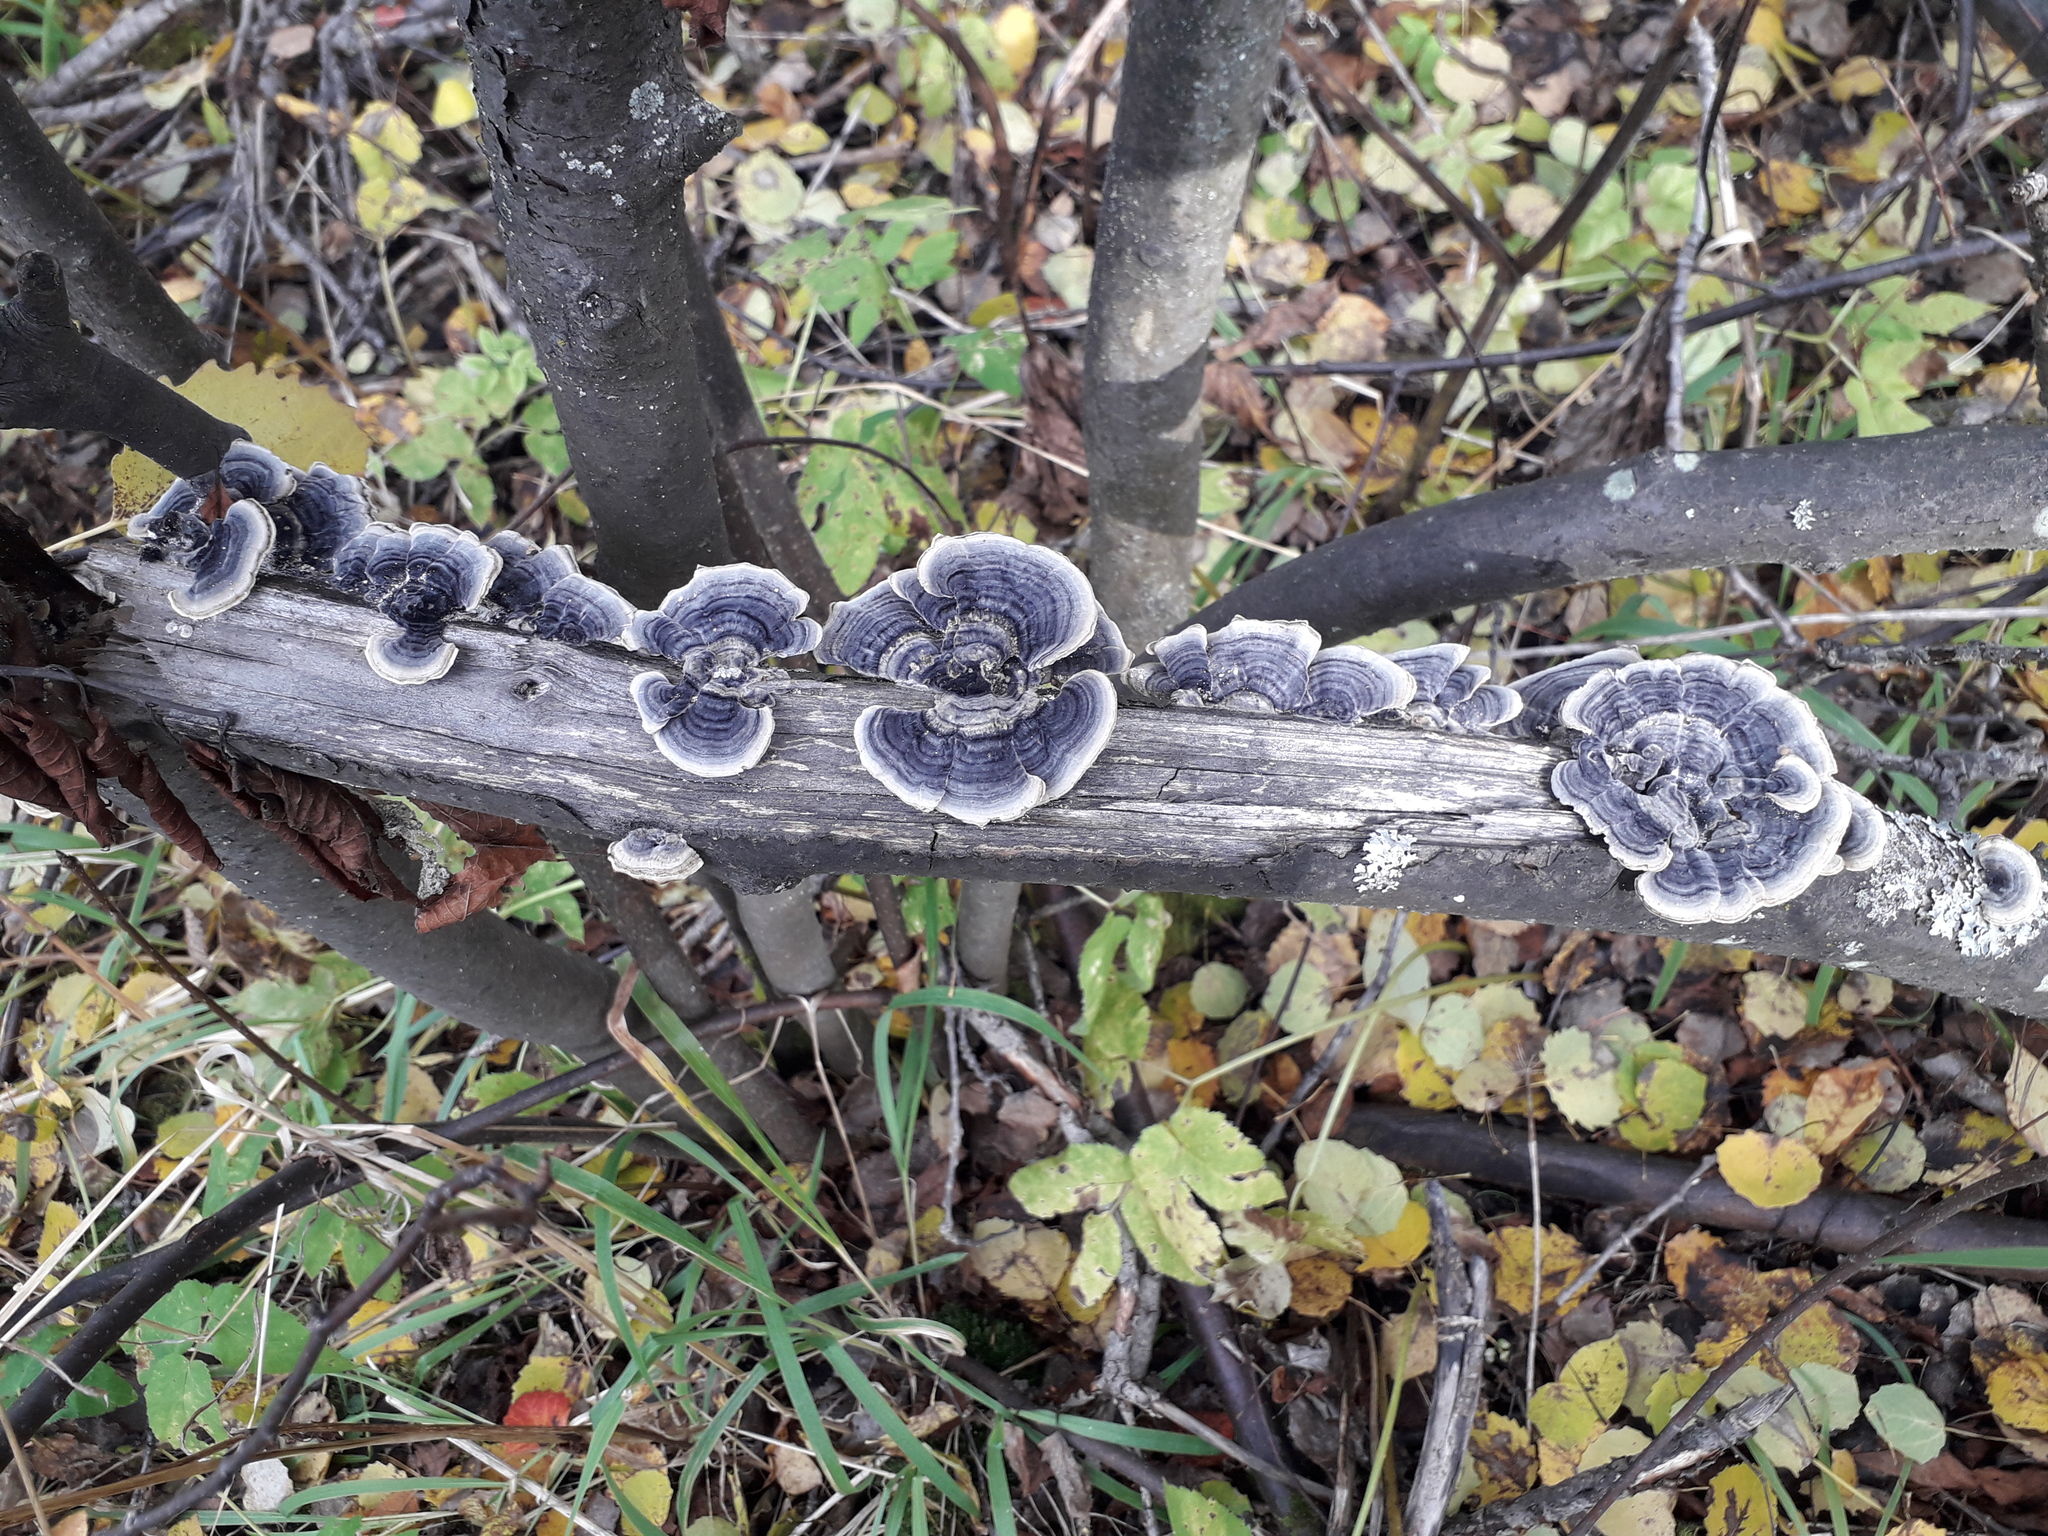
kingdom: Fungi
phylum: Basidiomycota
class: Agaricomycetes
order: Polyporales
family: Polyporaceae
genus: Trametes
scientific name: Trametes versicolor
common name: Turkeytail
